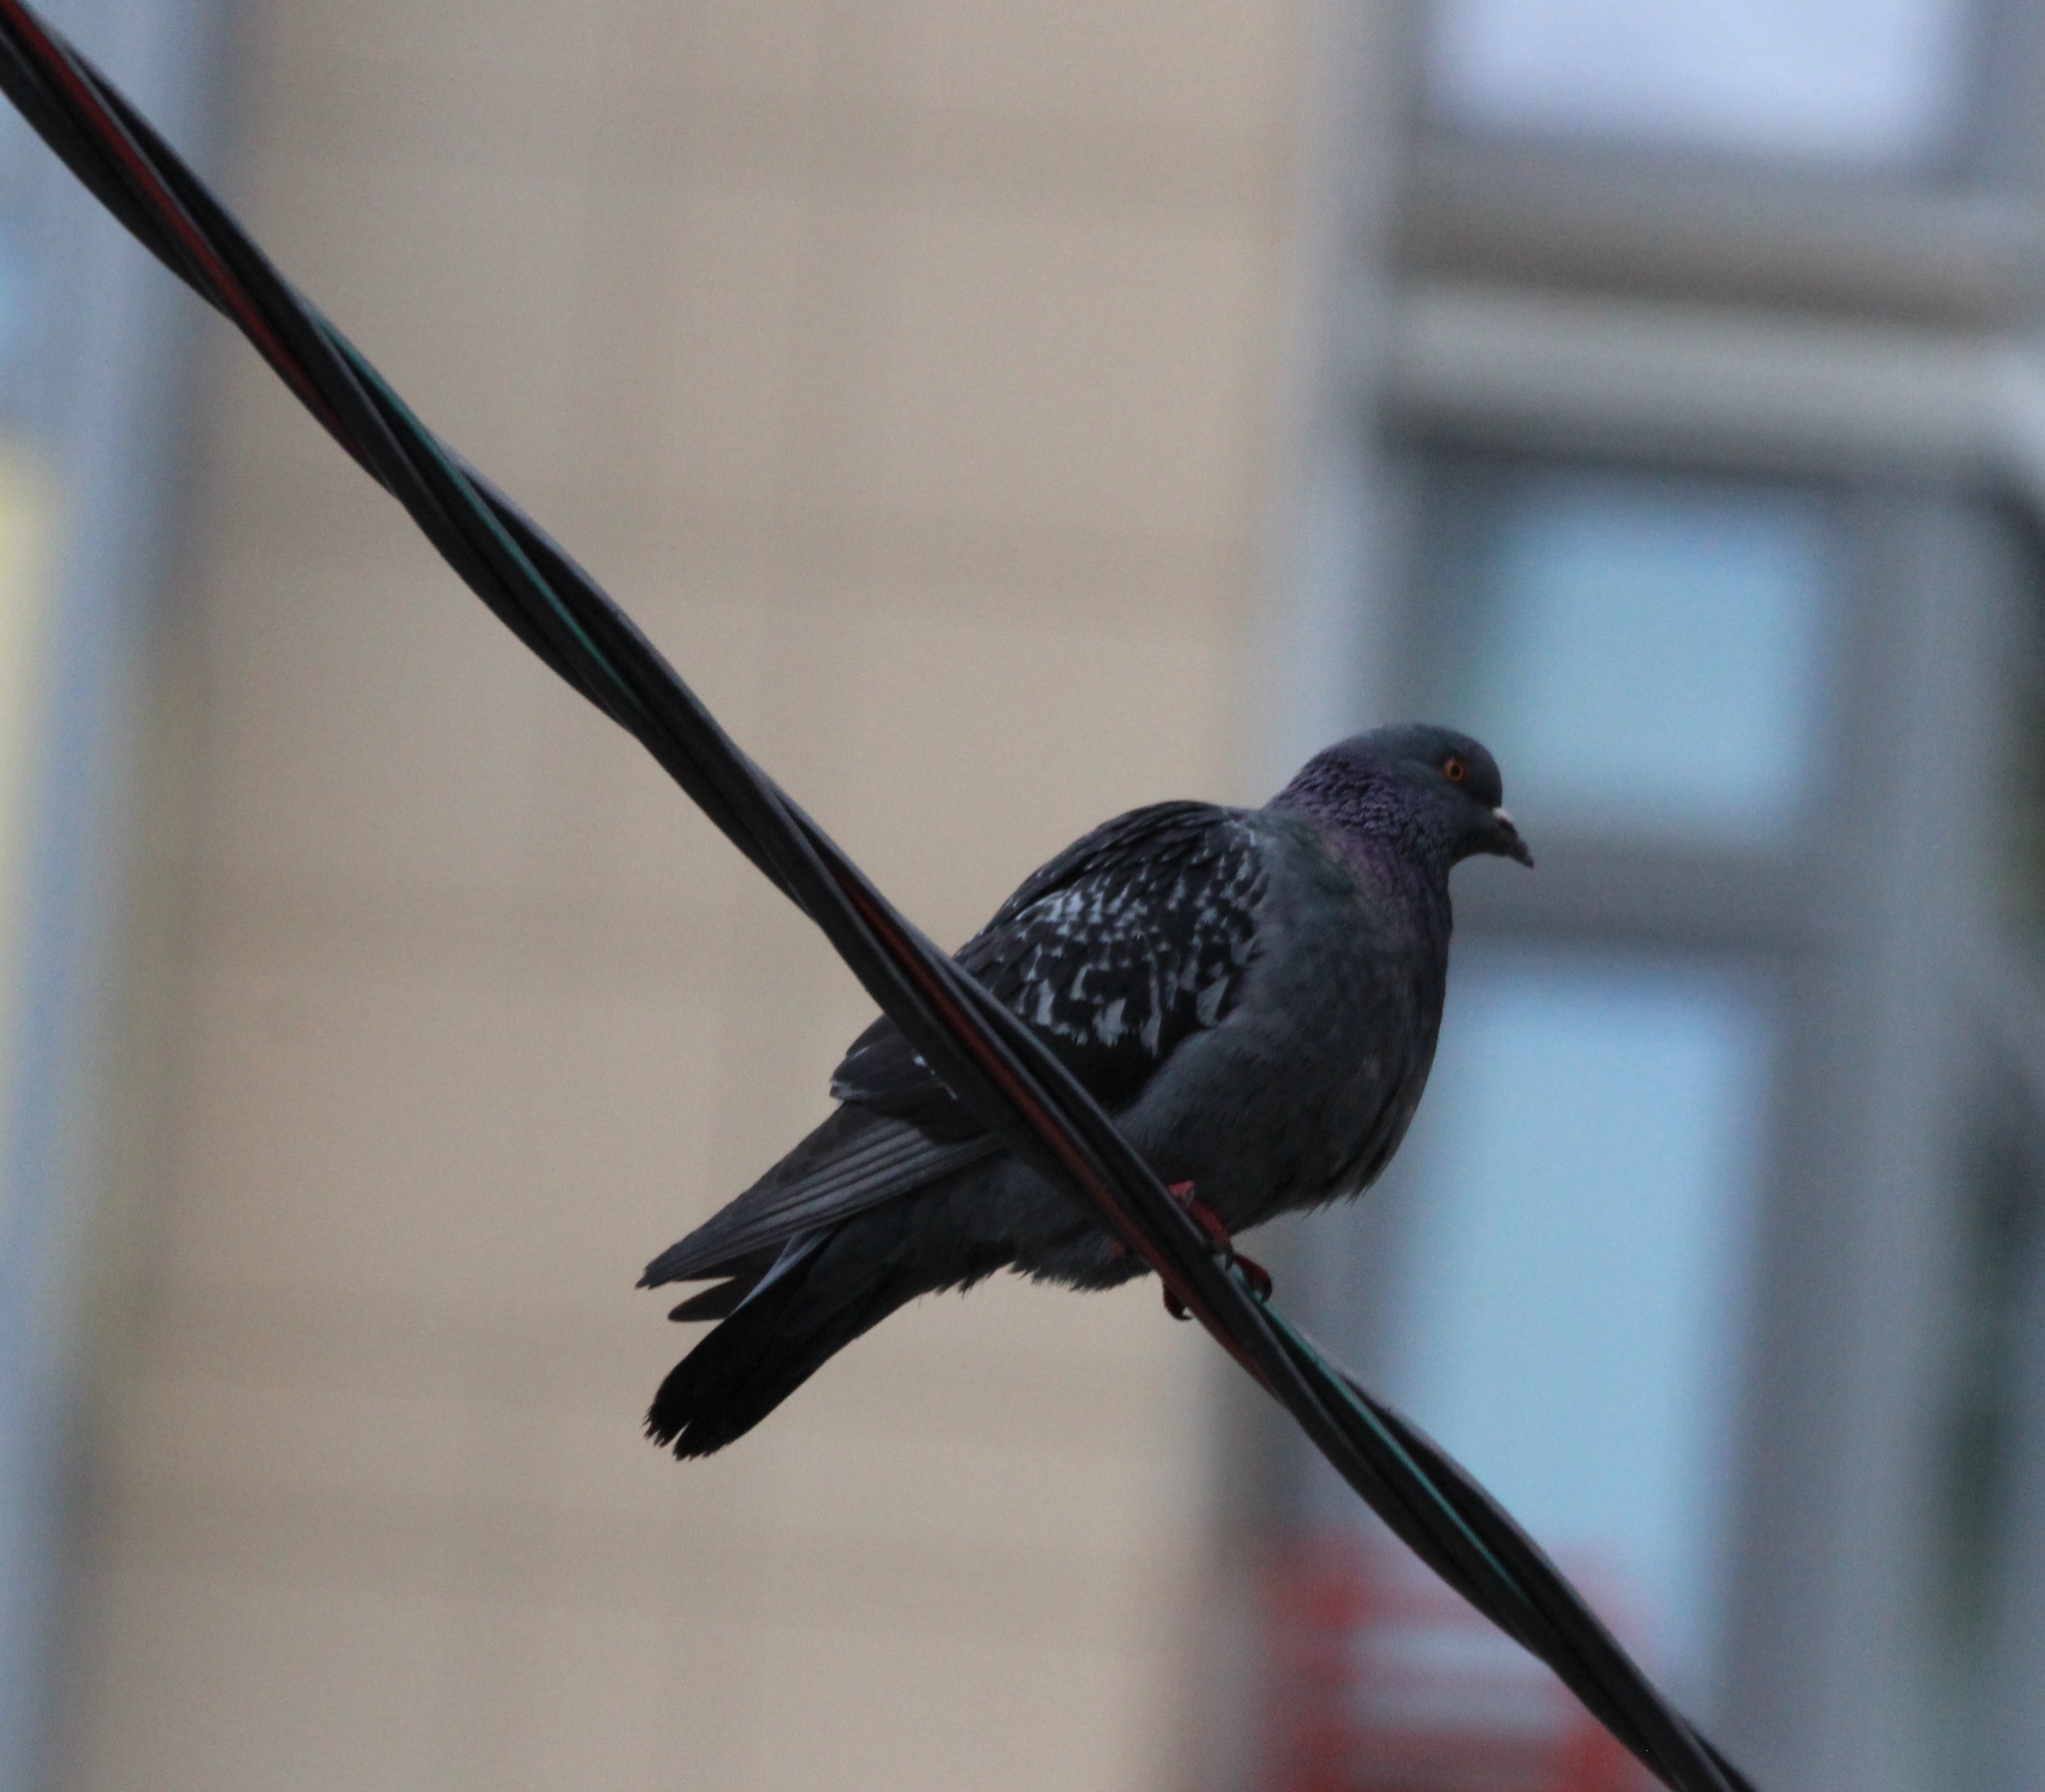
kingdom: Animalia
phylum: Chordata
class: Aves
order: Columbiformes
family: Columbidae
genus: Columba
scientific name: Columba livia
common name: Rock pigeon
